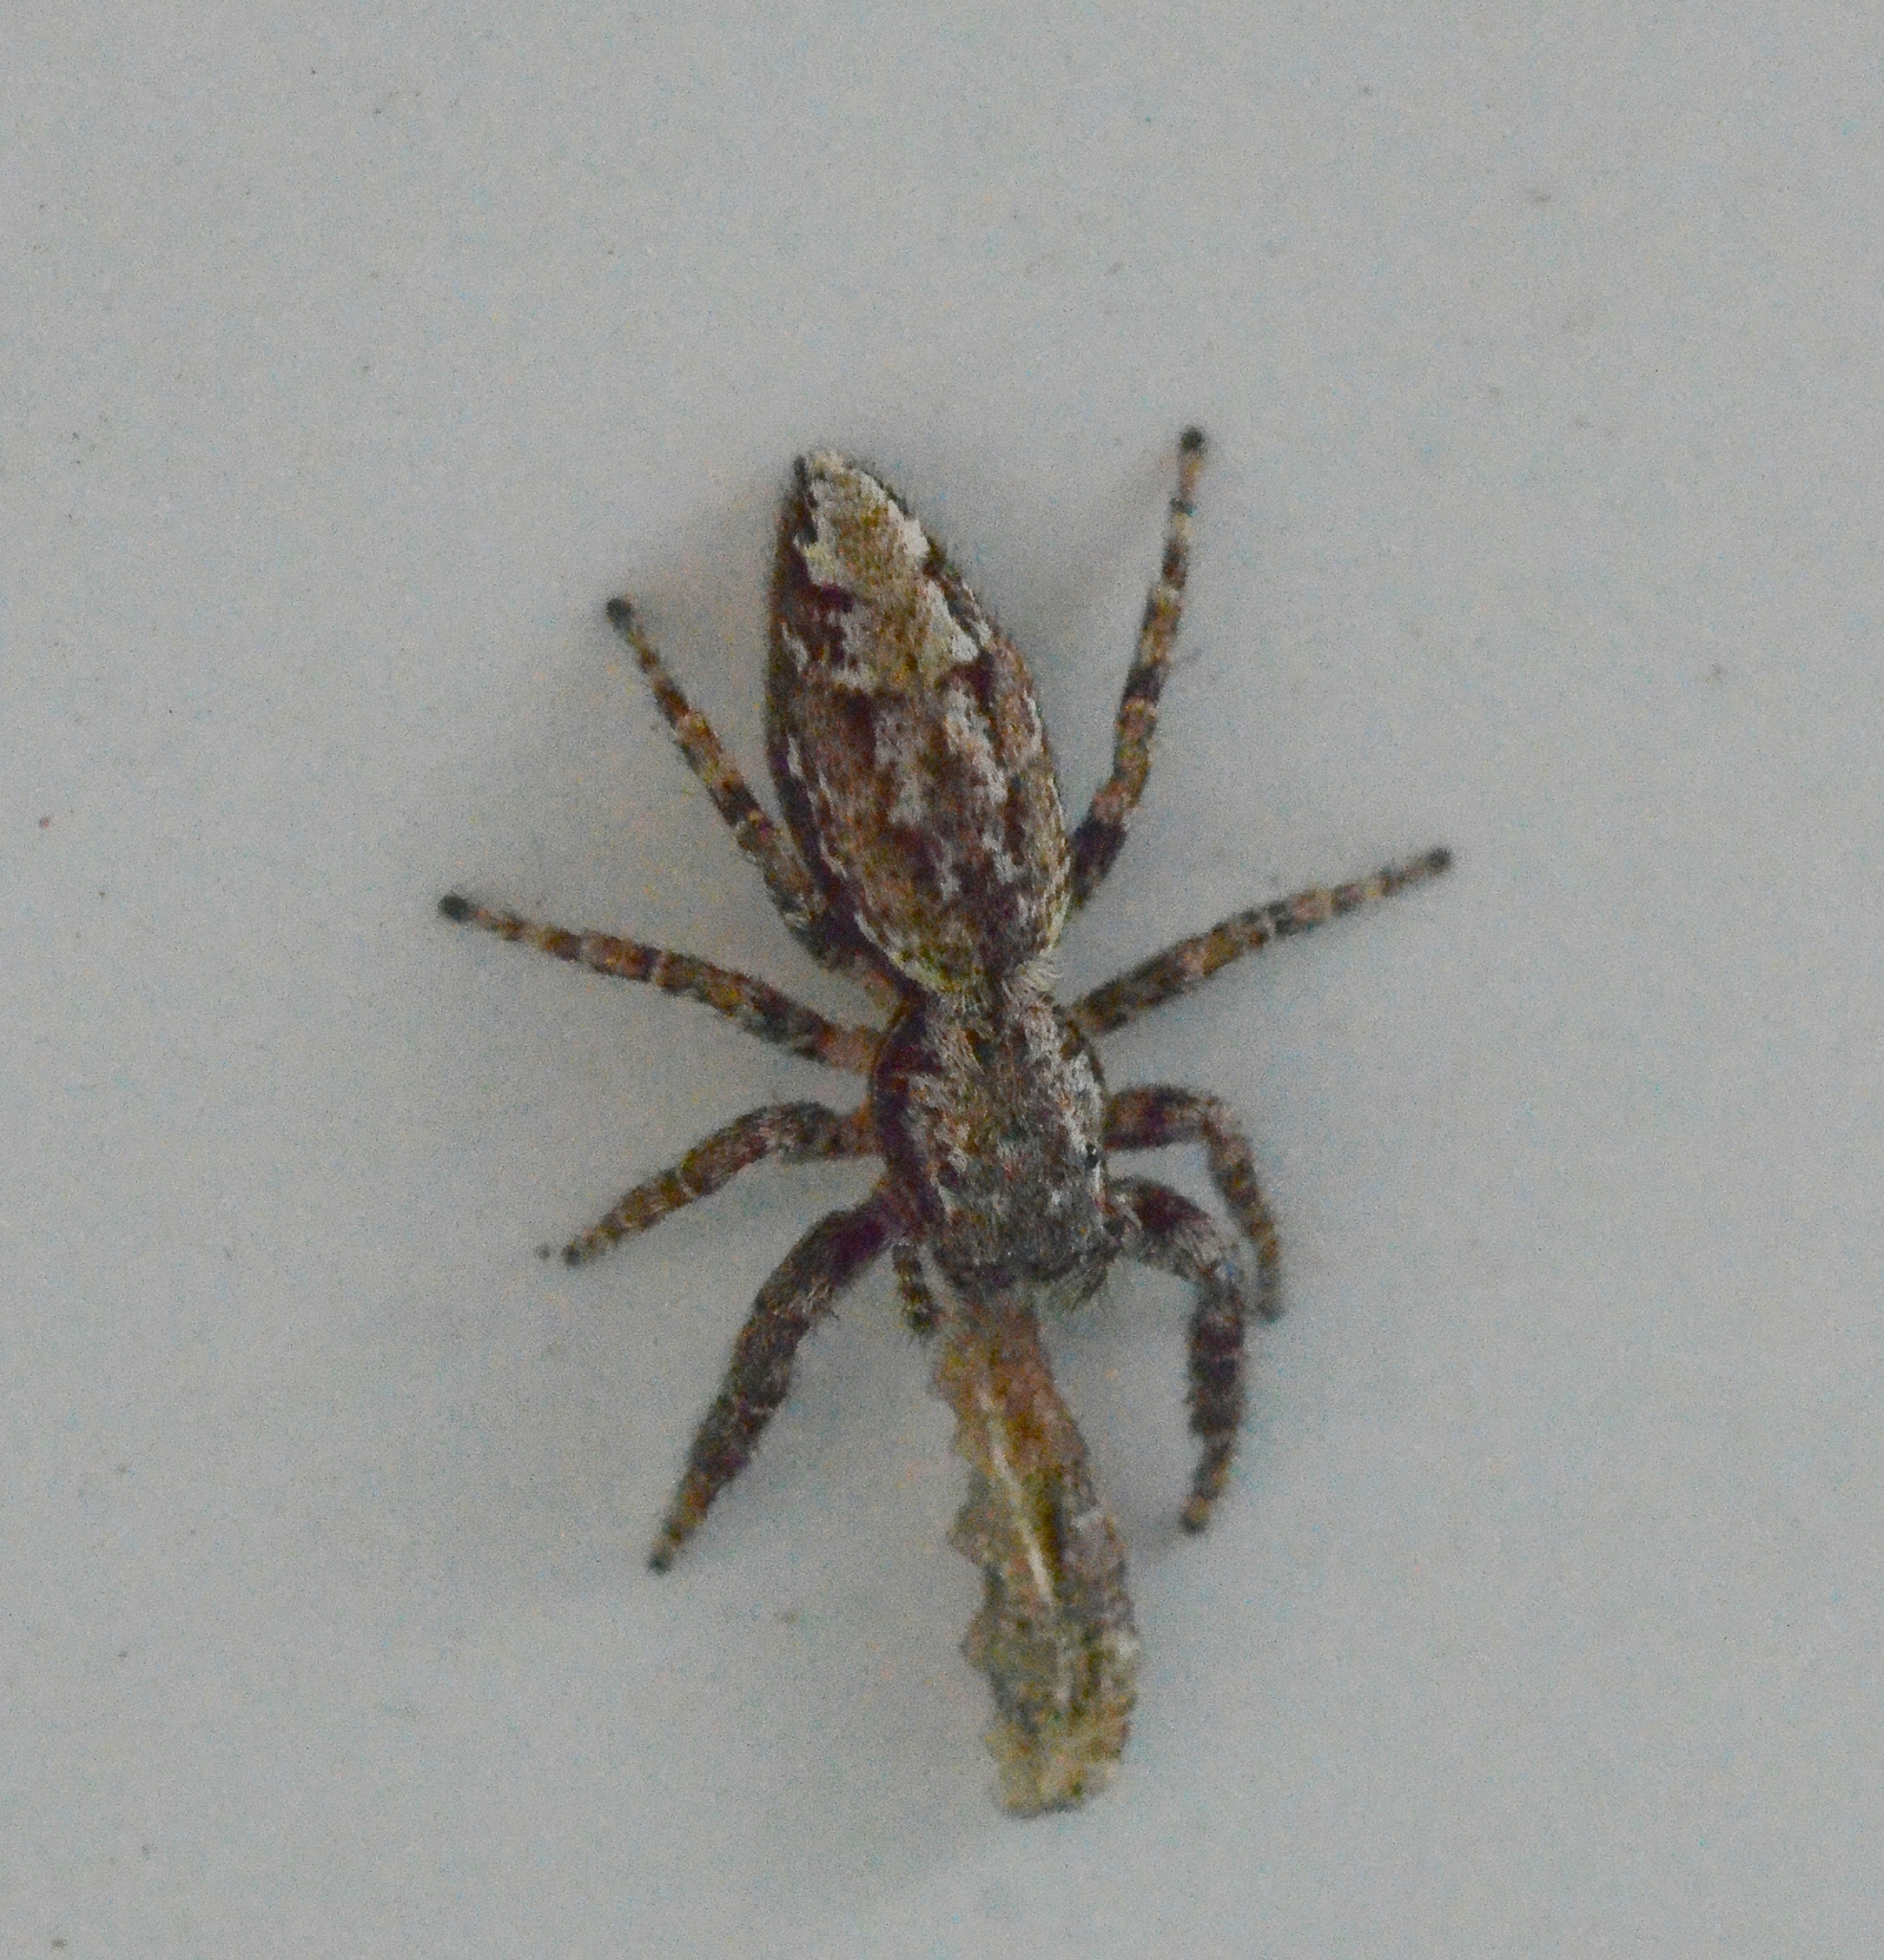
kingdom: Animalia
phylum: Arthropoda
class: Arachnida
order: Araneae
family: Salticidae
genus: Marpissa
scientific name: Marpissa muscosa
